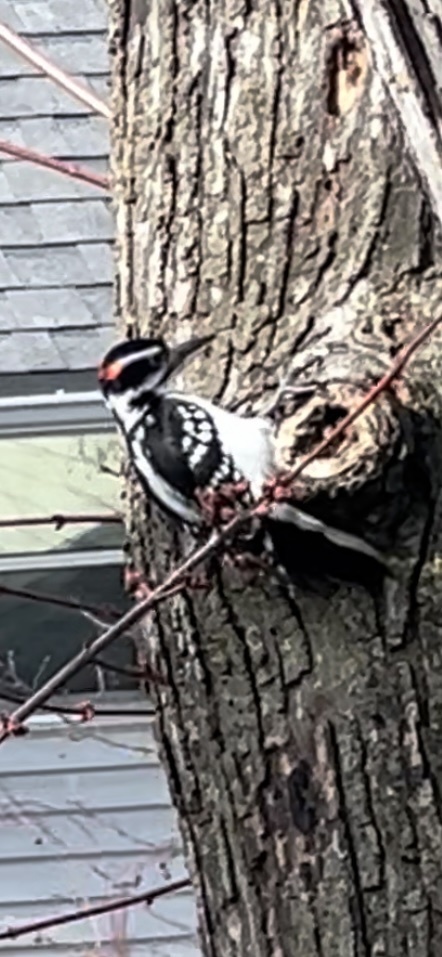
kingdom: Animalia
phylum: Chordata
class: Aves
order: Piciformes
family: Picidae
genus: Leuconotopicus
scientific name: Leuconotopicus villosus
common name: Hairy woodpecker
